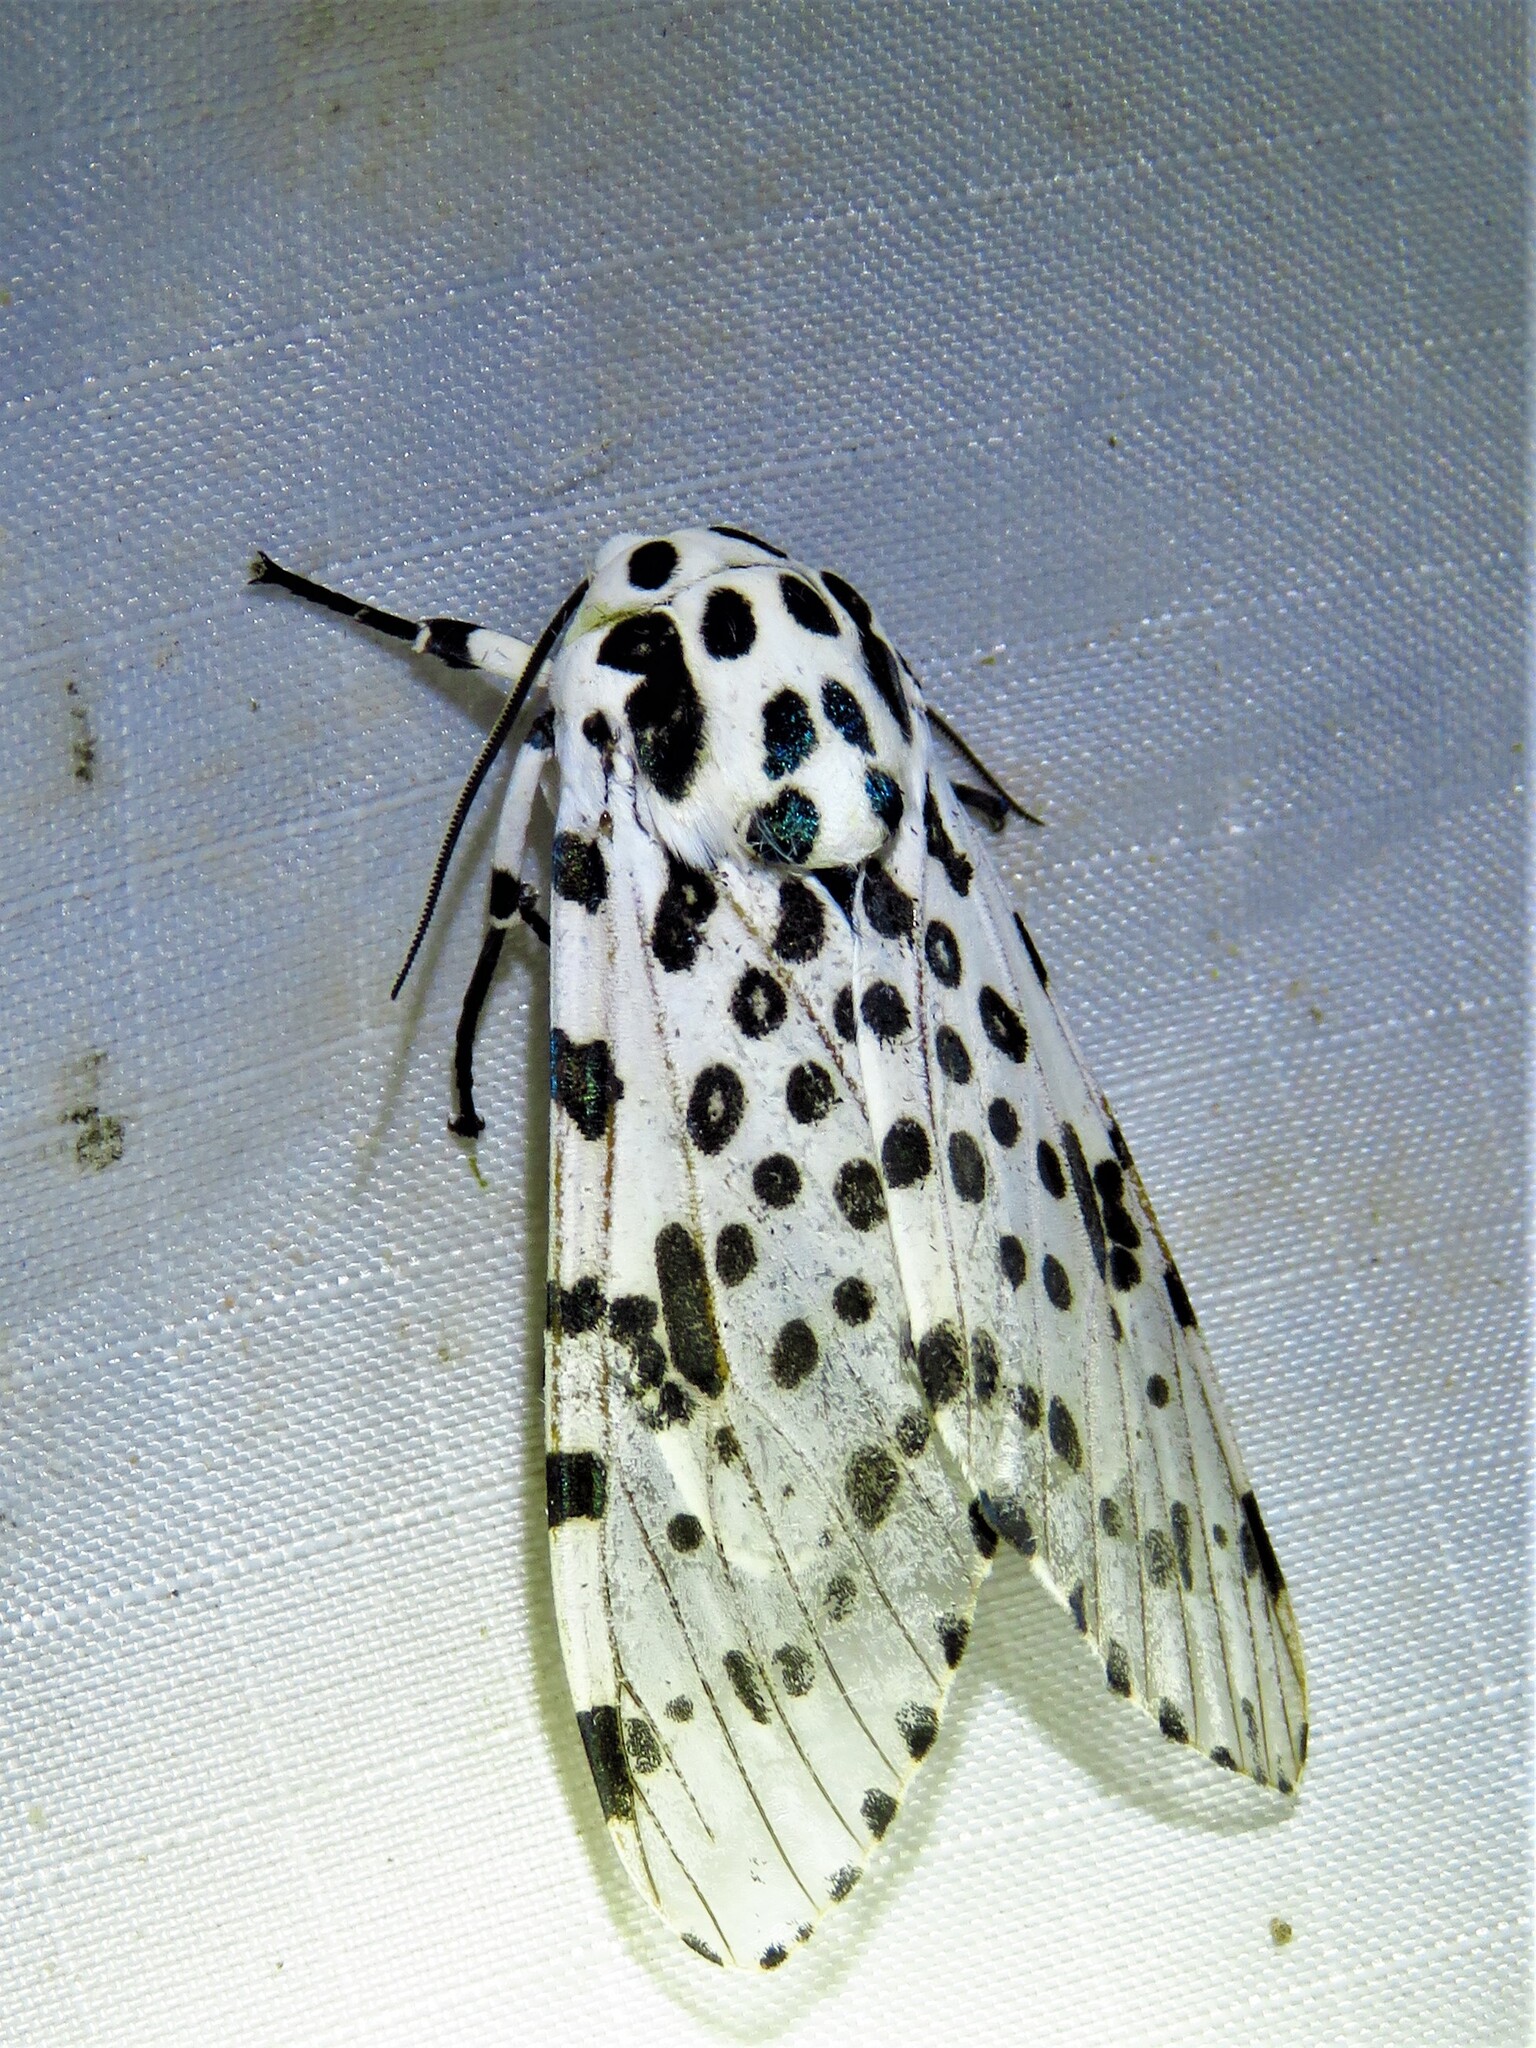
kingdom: Animalia
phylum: Arthropoda
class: Insecta
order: Lepidoptera
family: Erebidae
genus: Hypercompe
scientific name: Hypercompe scribonia
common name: Giant leopard moth
